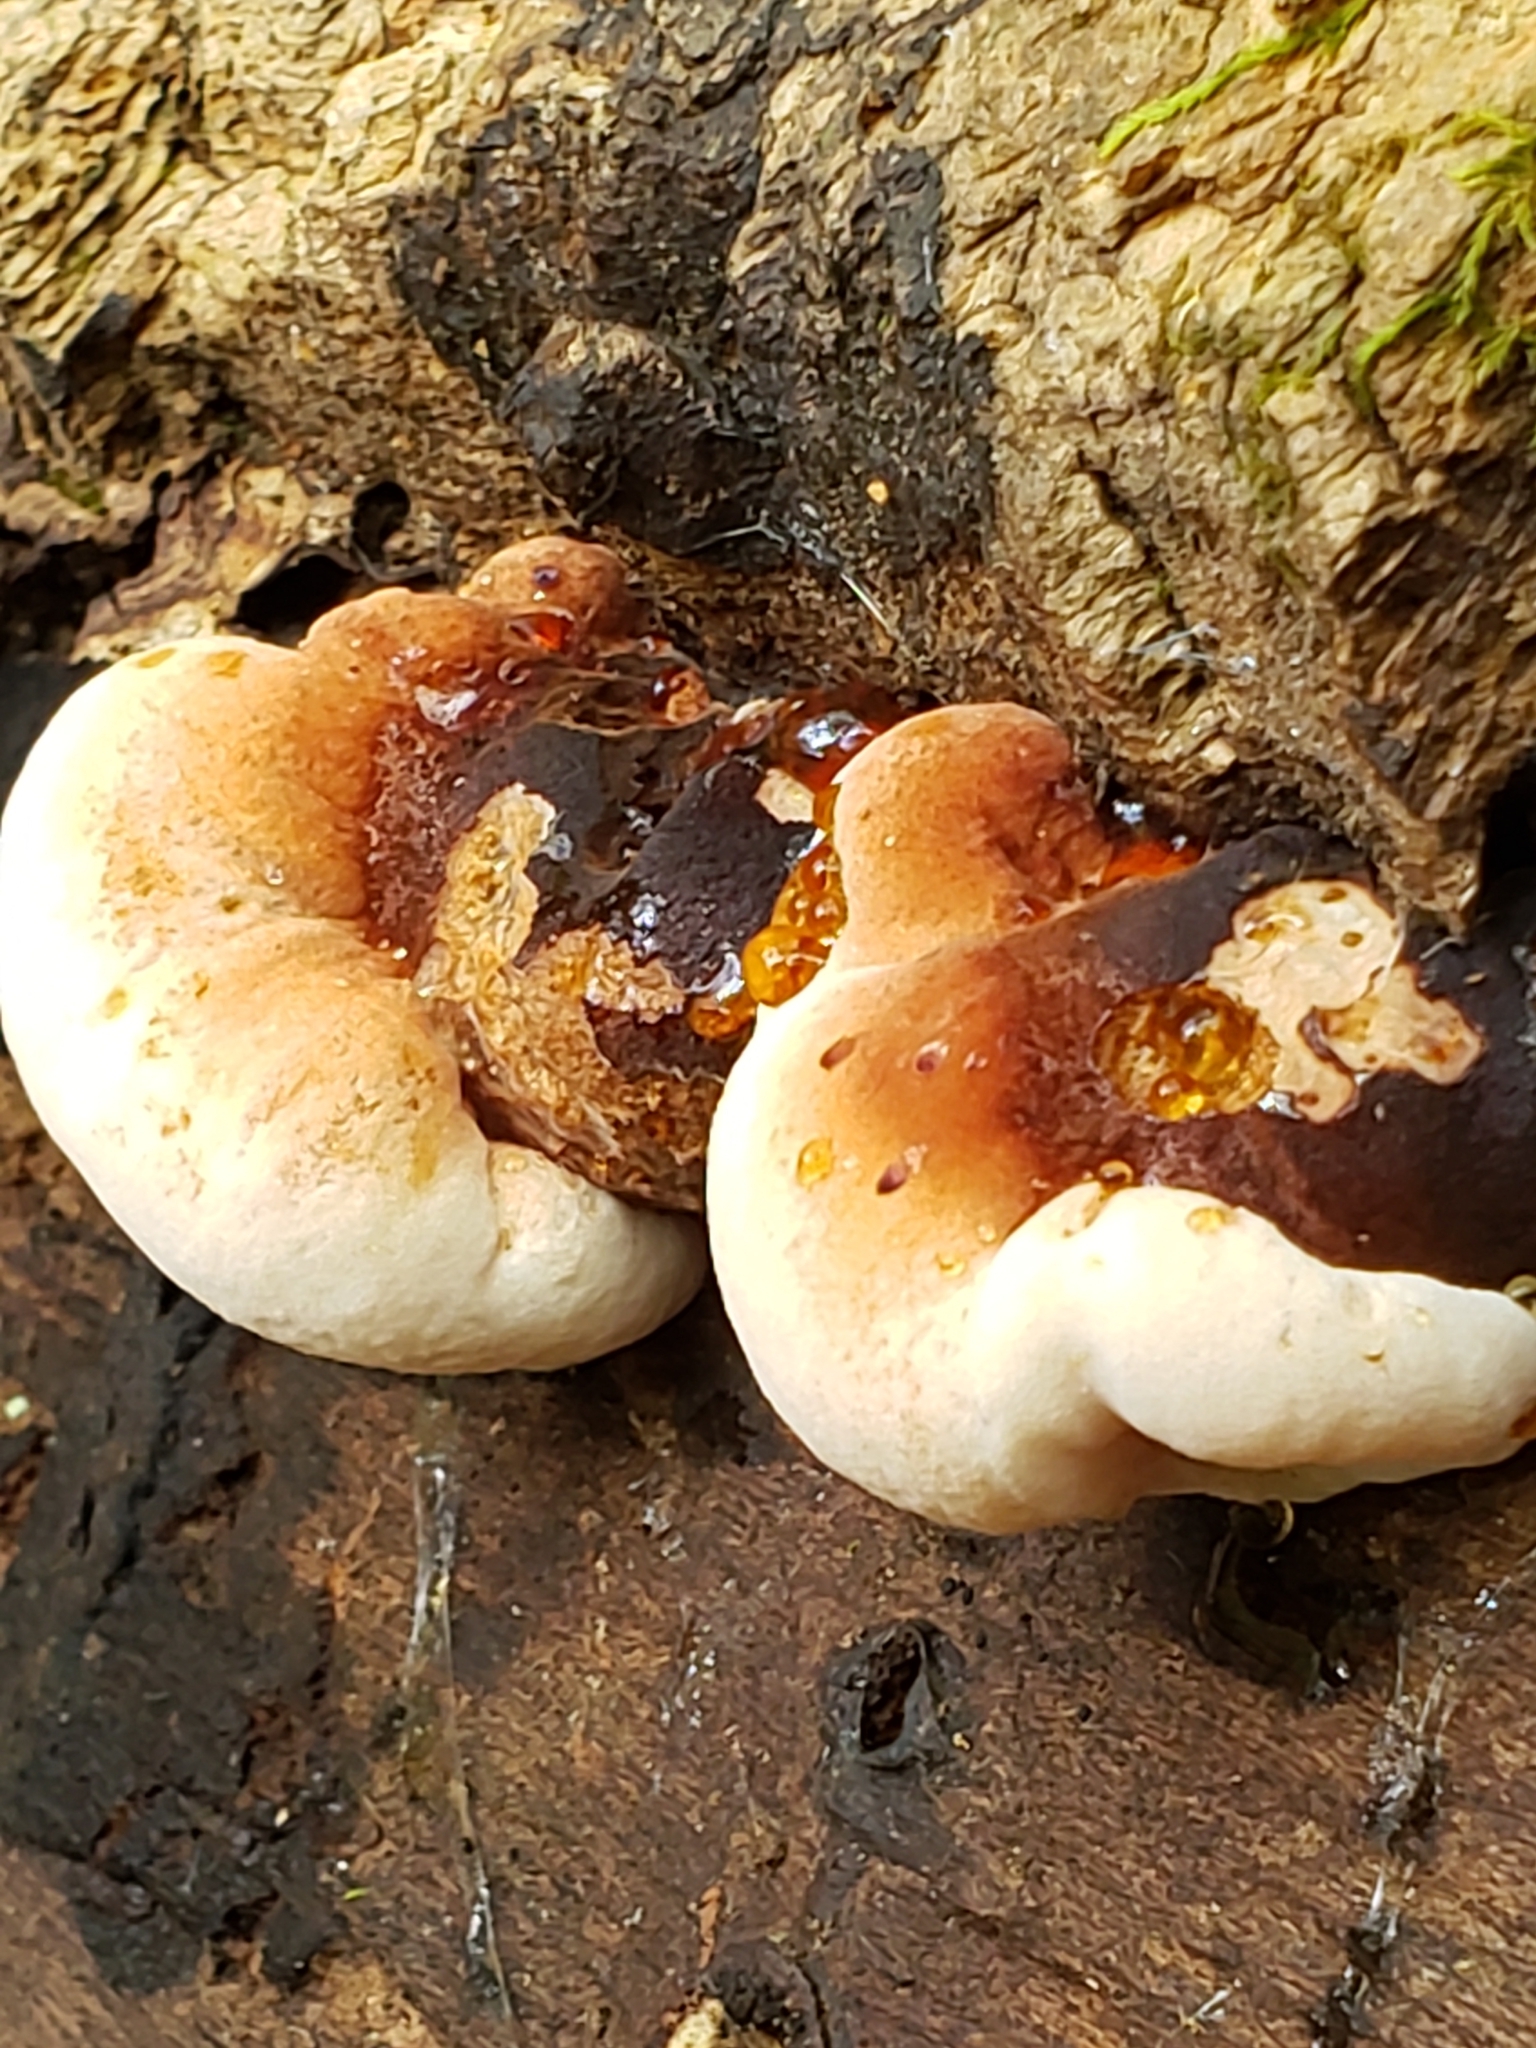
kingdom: Fungi
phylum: Basidiomycota
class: Agaricomycetes
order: Polyporales
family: Ischnodermataceae
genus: Ischnoderma
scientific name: Ischnoderma resinosum
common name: Resinous polypore
